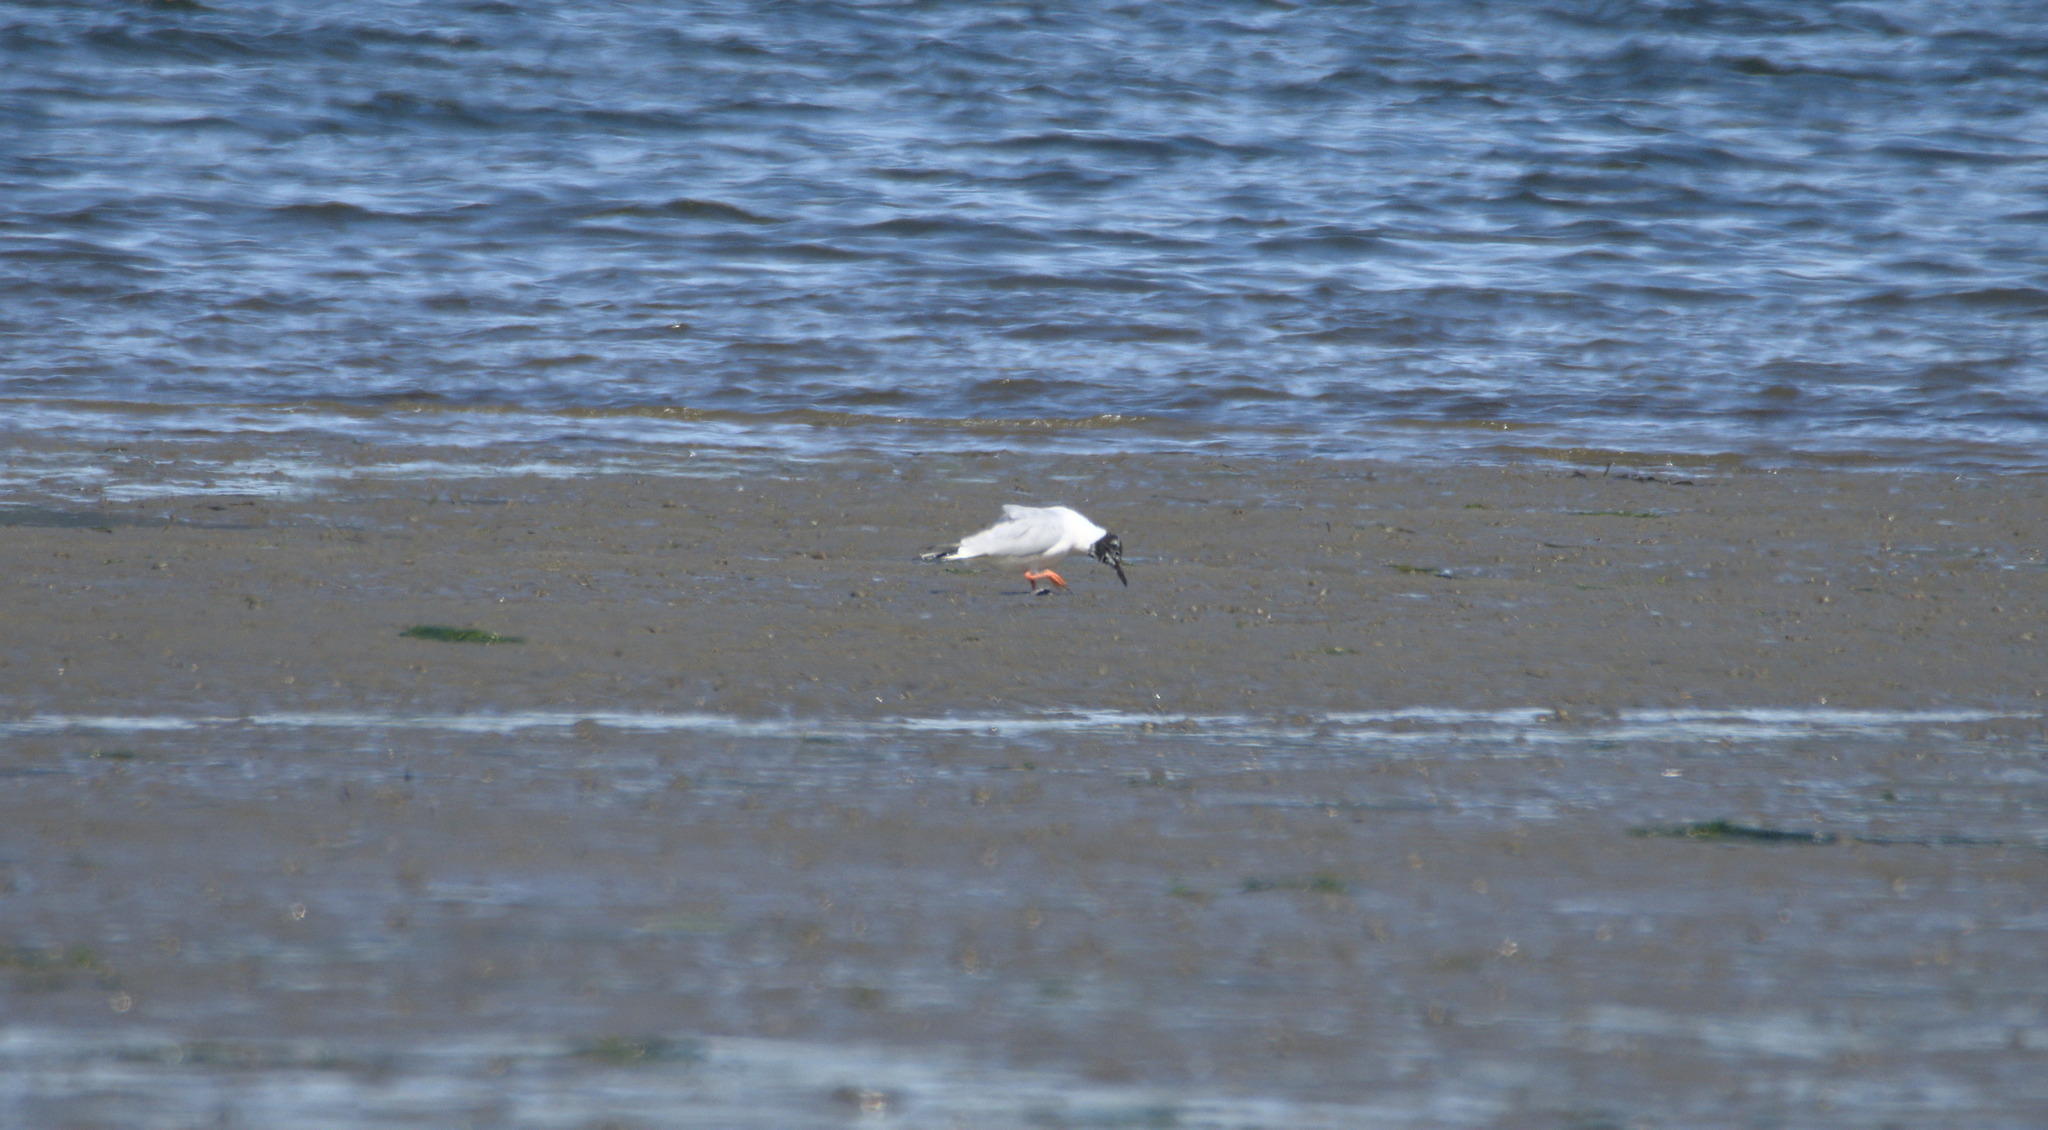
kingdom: Animalia
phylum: Chordata
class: Aves
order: Charadriiformes
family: Laridae
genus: Chroicocephalus
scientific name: Chroicocephalus philadelphia
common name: Bonaparte's gull
